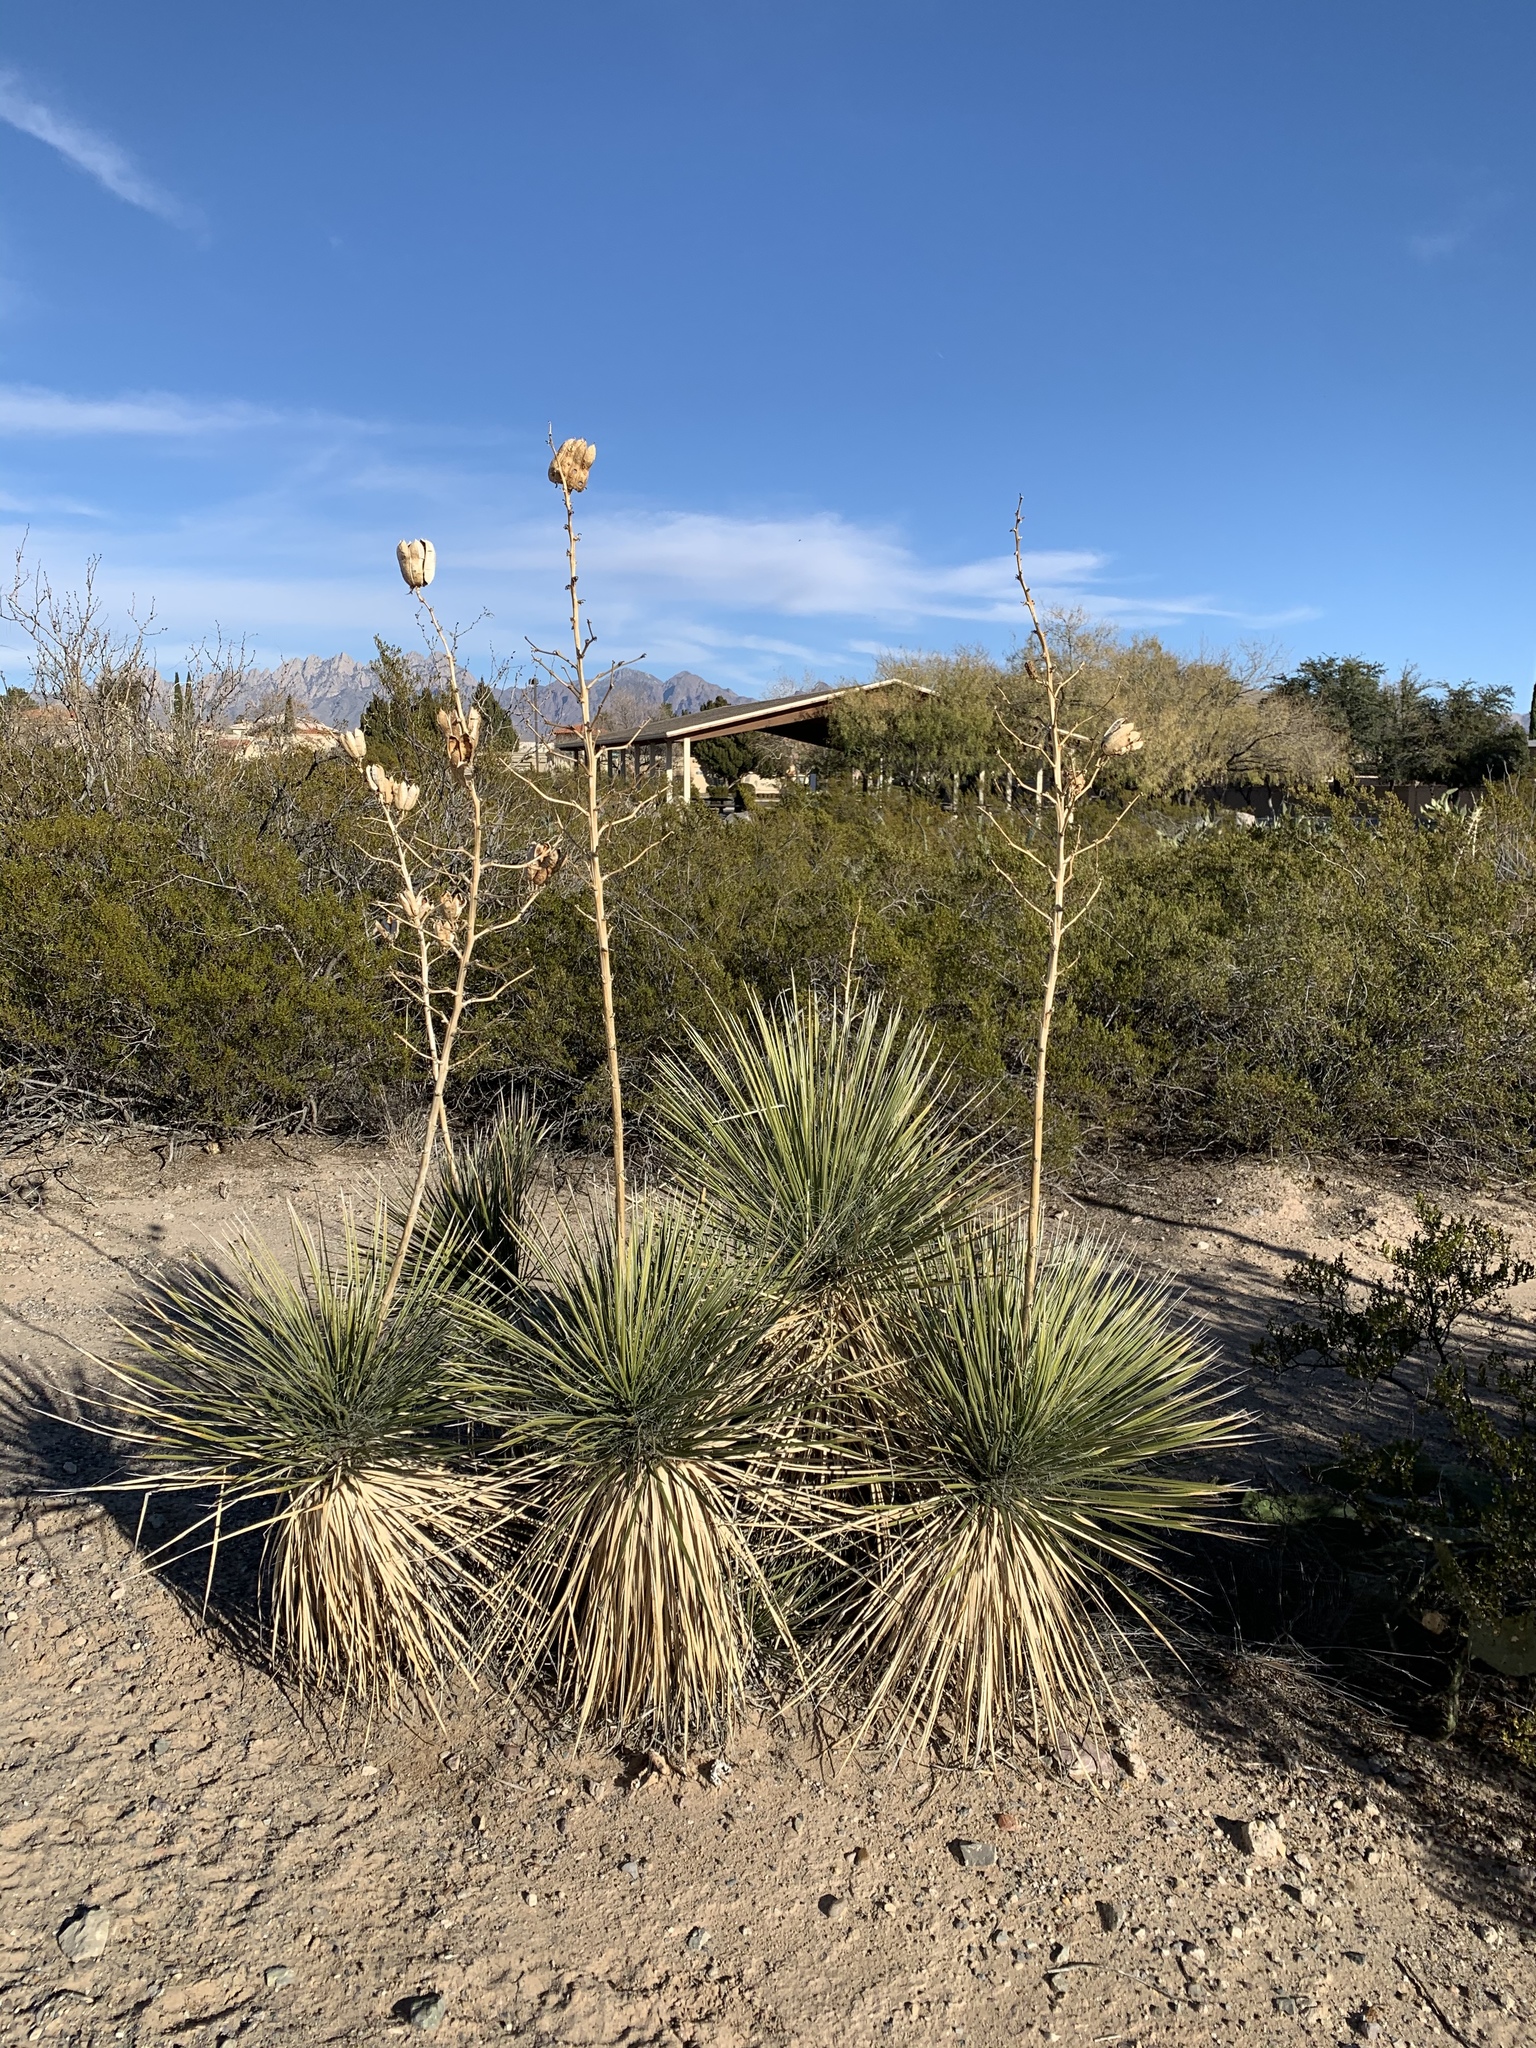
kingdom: Plantae
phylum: Tracheophyta
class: Liliopsida
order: Asparagales
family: Asparagaceae
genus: Yucca
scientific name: Yucca elata
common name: Palmella
